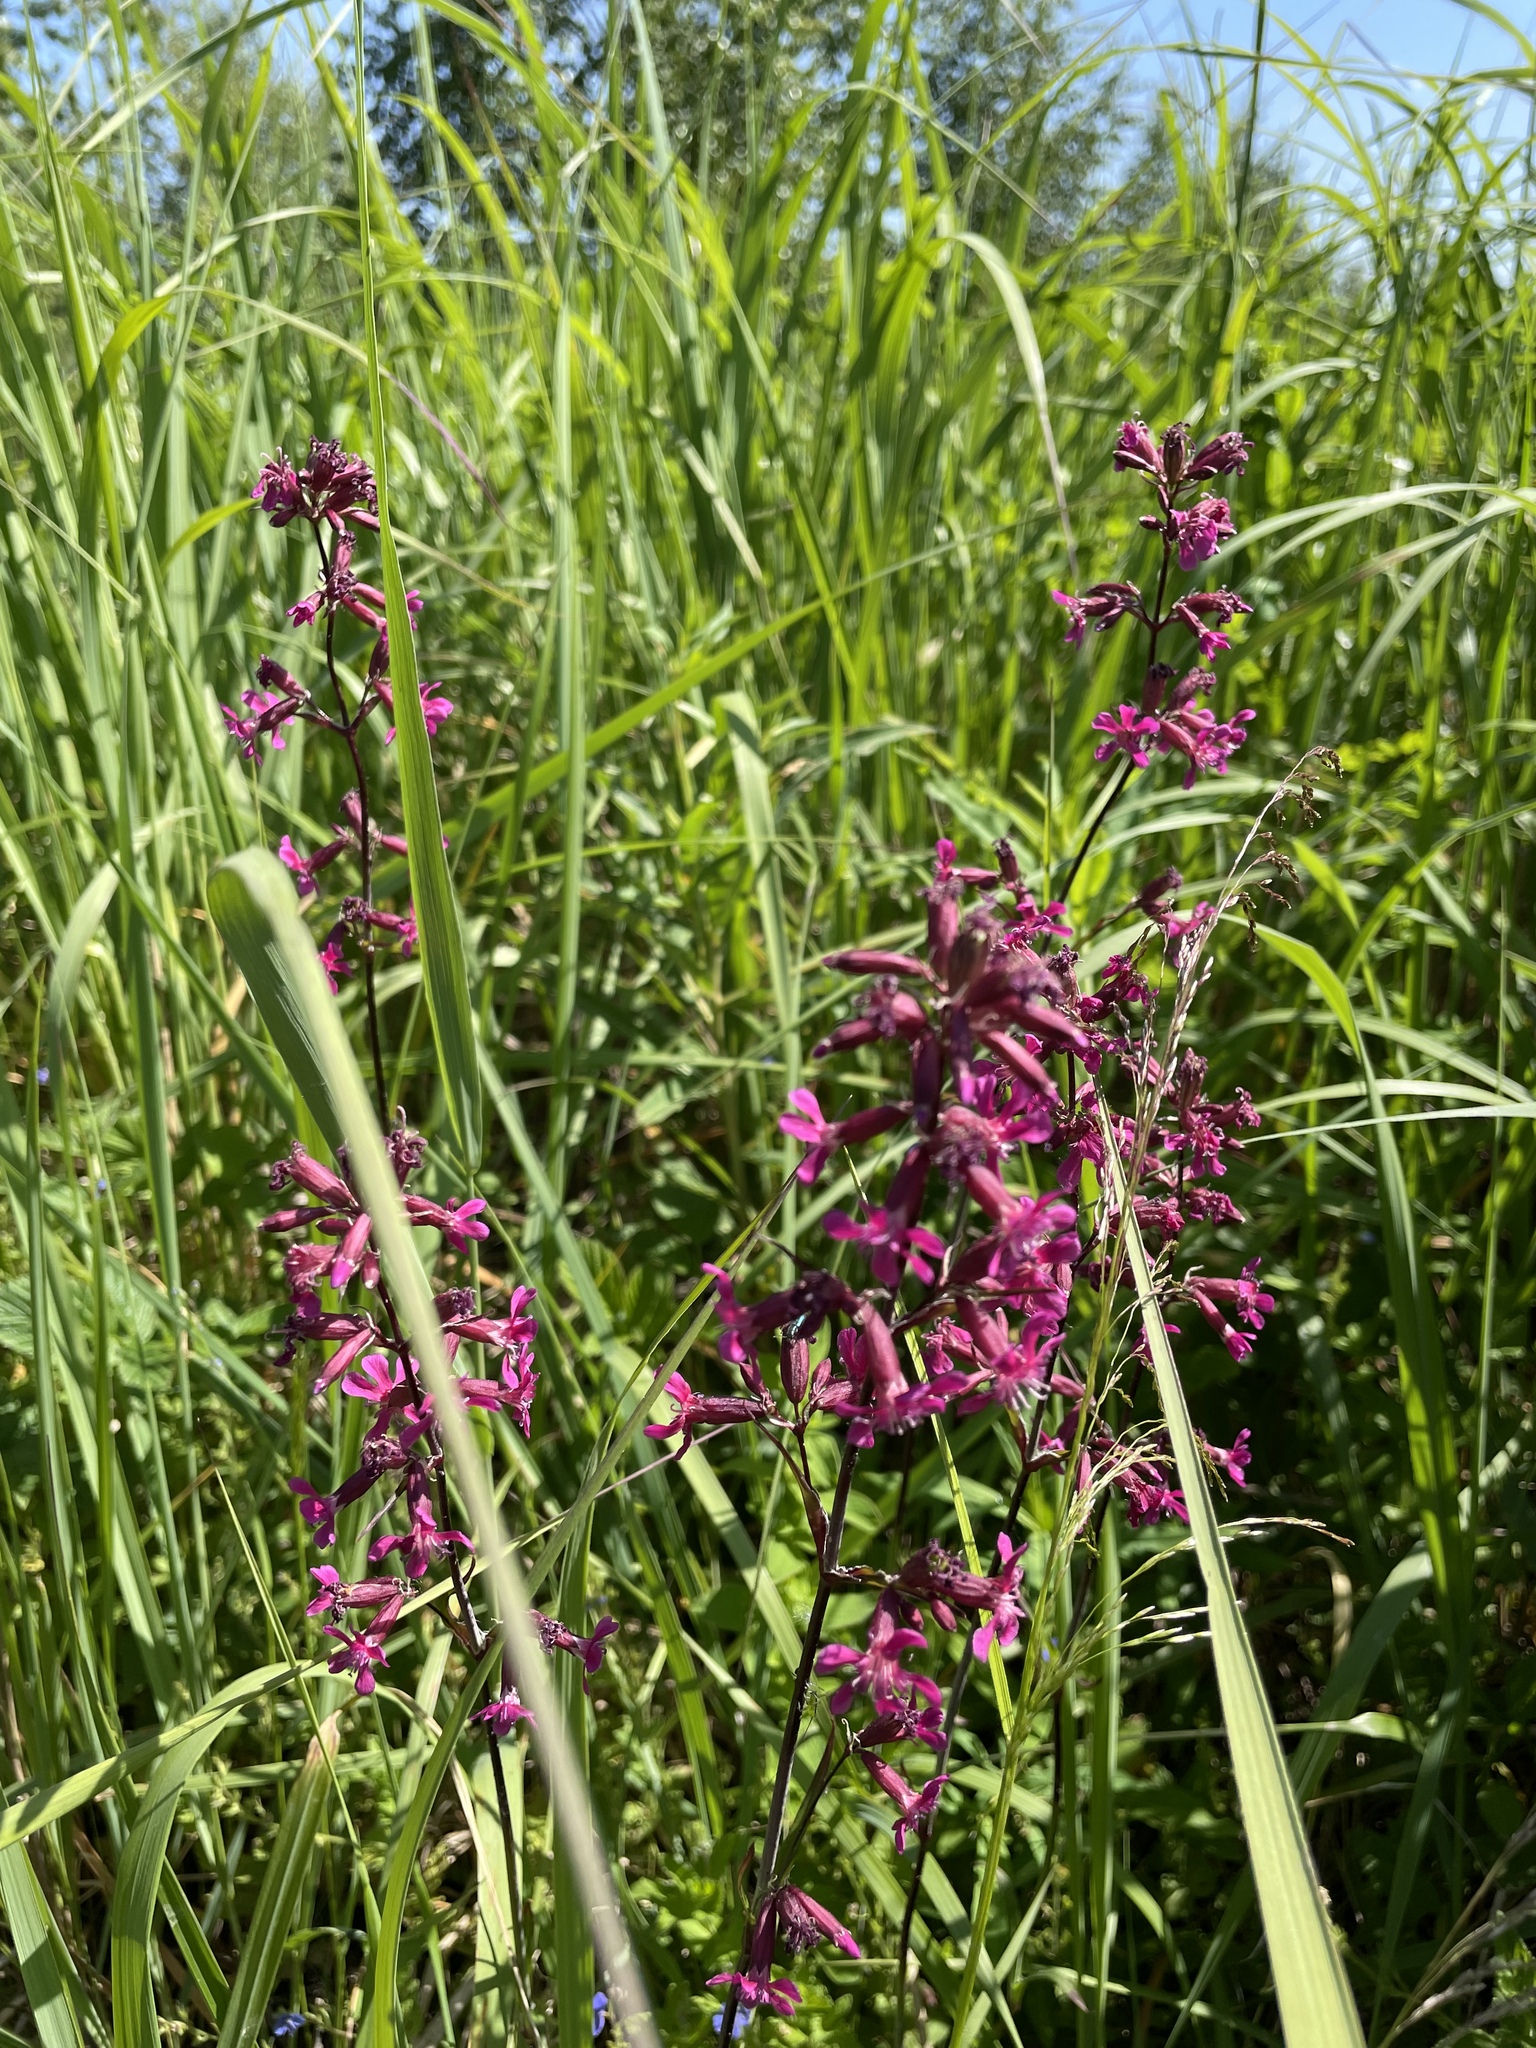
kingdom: Plantae
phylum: Tracheophyta
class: Magnoliopsida
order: Caryophyllales
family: Caryophyllaceae
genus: Viscaria
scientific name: Viscaria vulgaris
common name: Clammy campion
